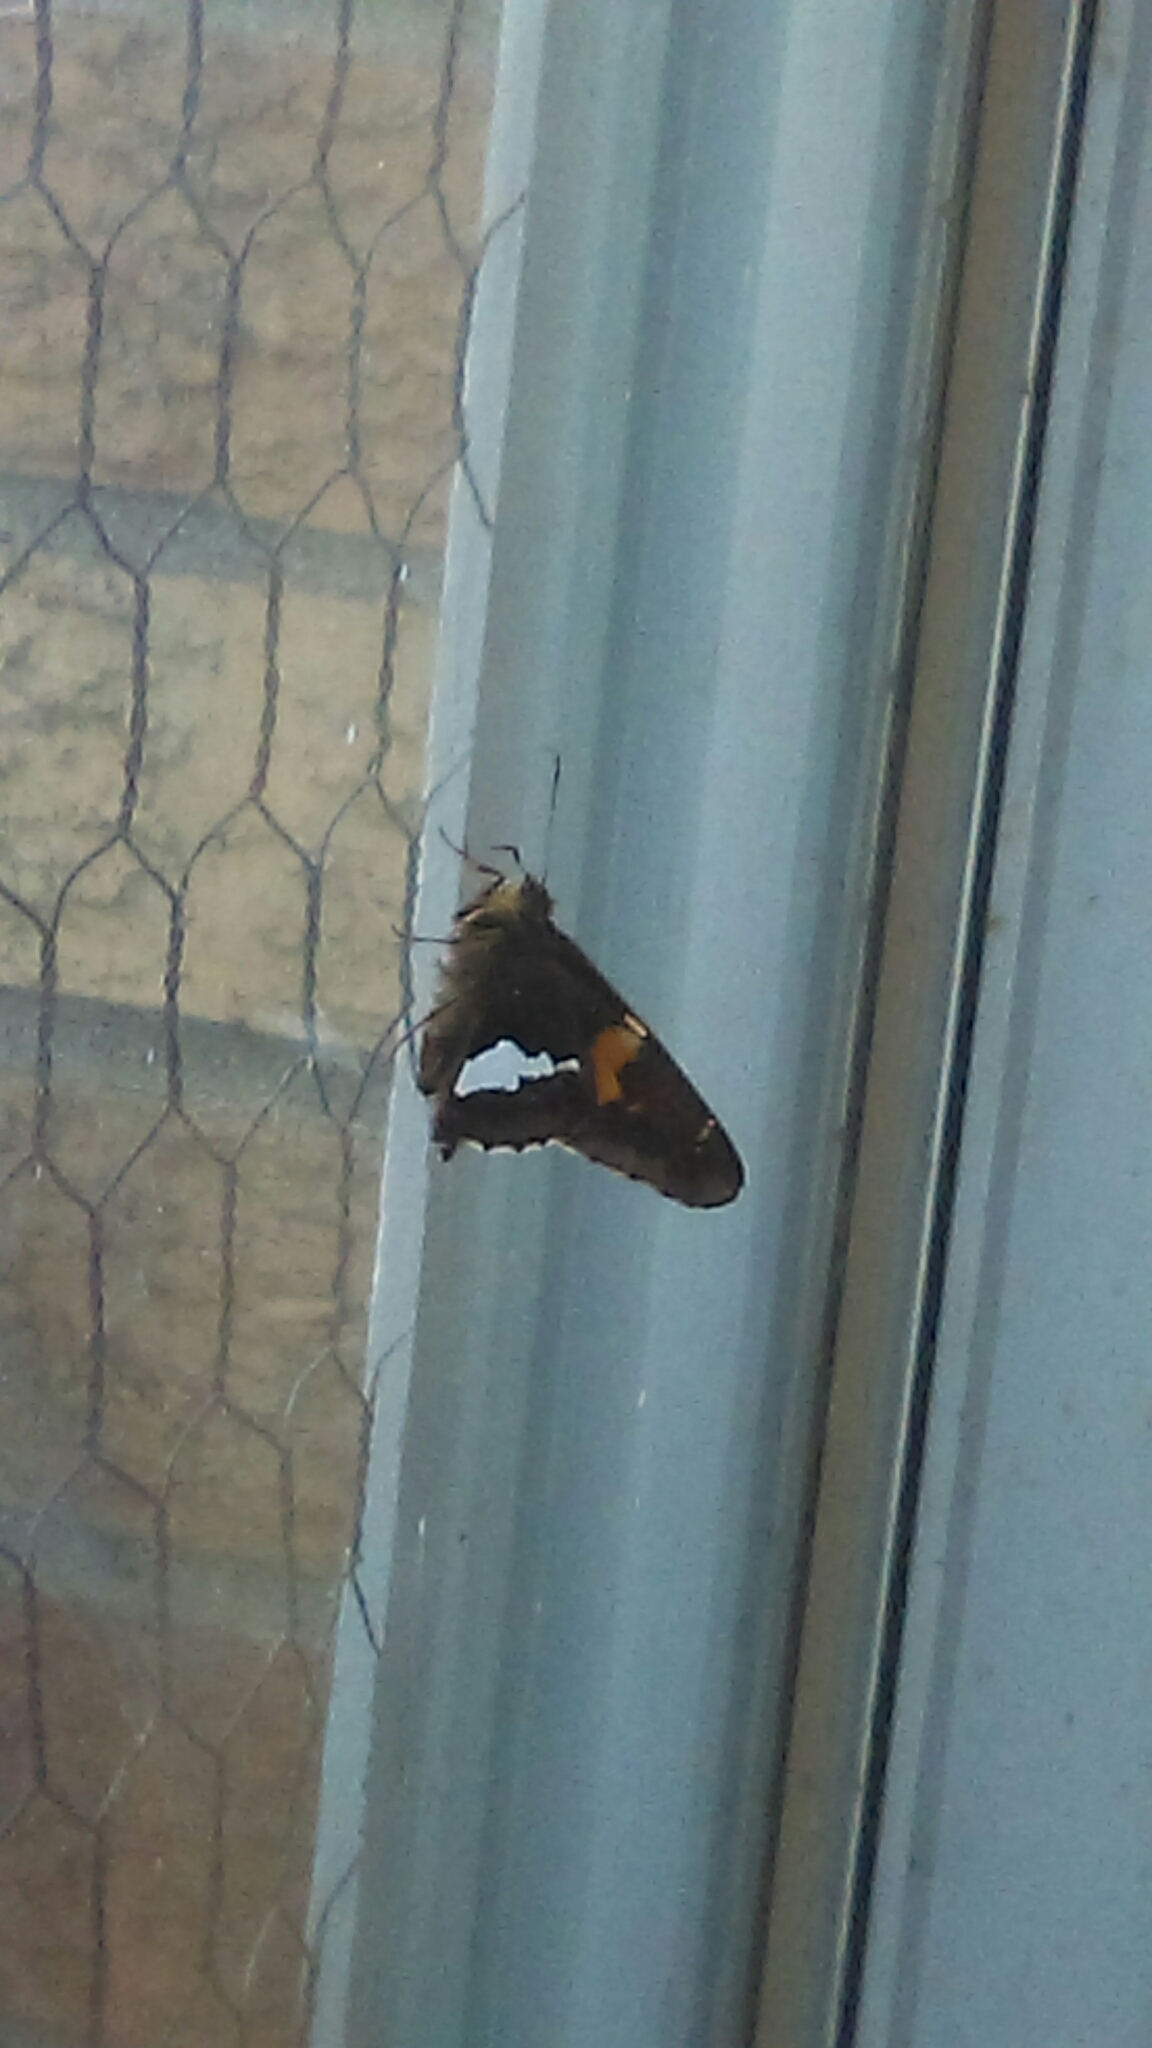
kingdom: Animalia
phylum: Arthropoda
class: Insecta
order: Lepidoptera
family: Hesperiidae
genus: Epargyreus
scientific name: Epargyreus clarus
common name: Silver-spotted skipper
